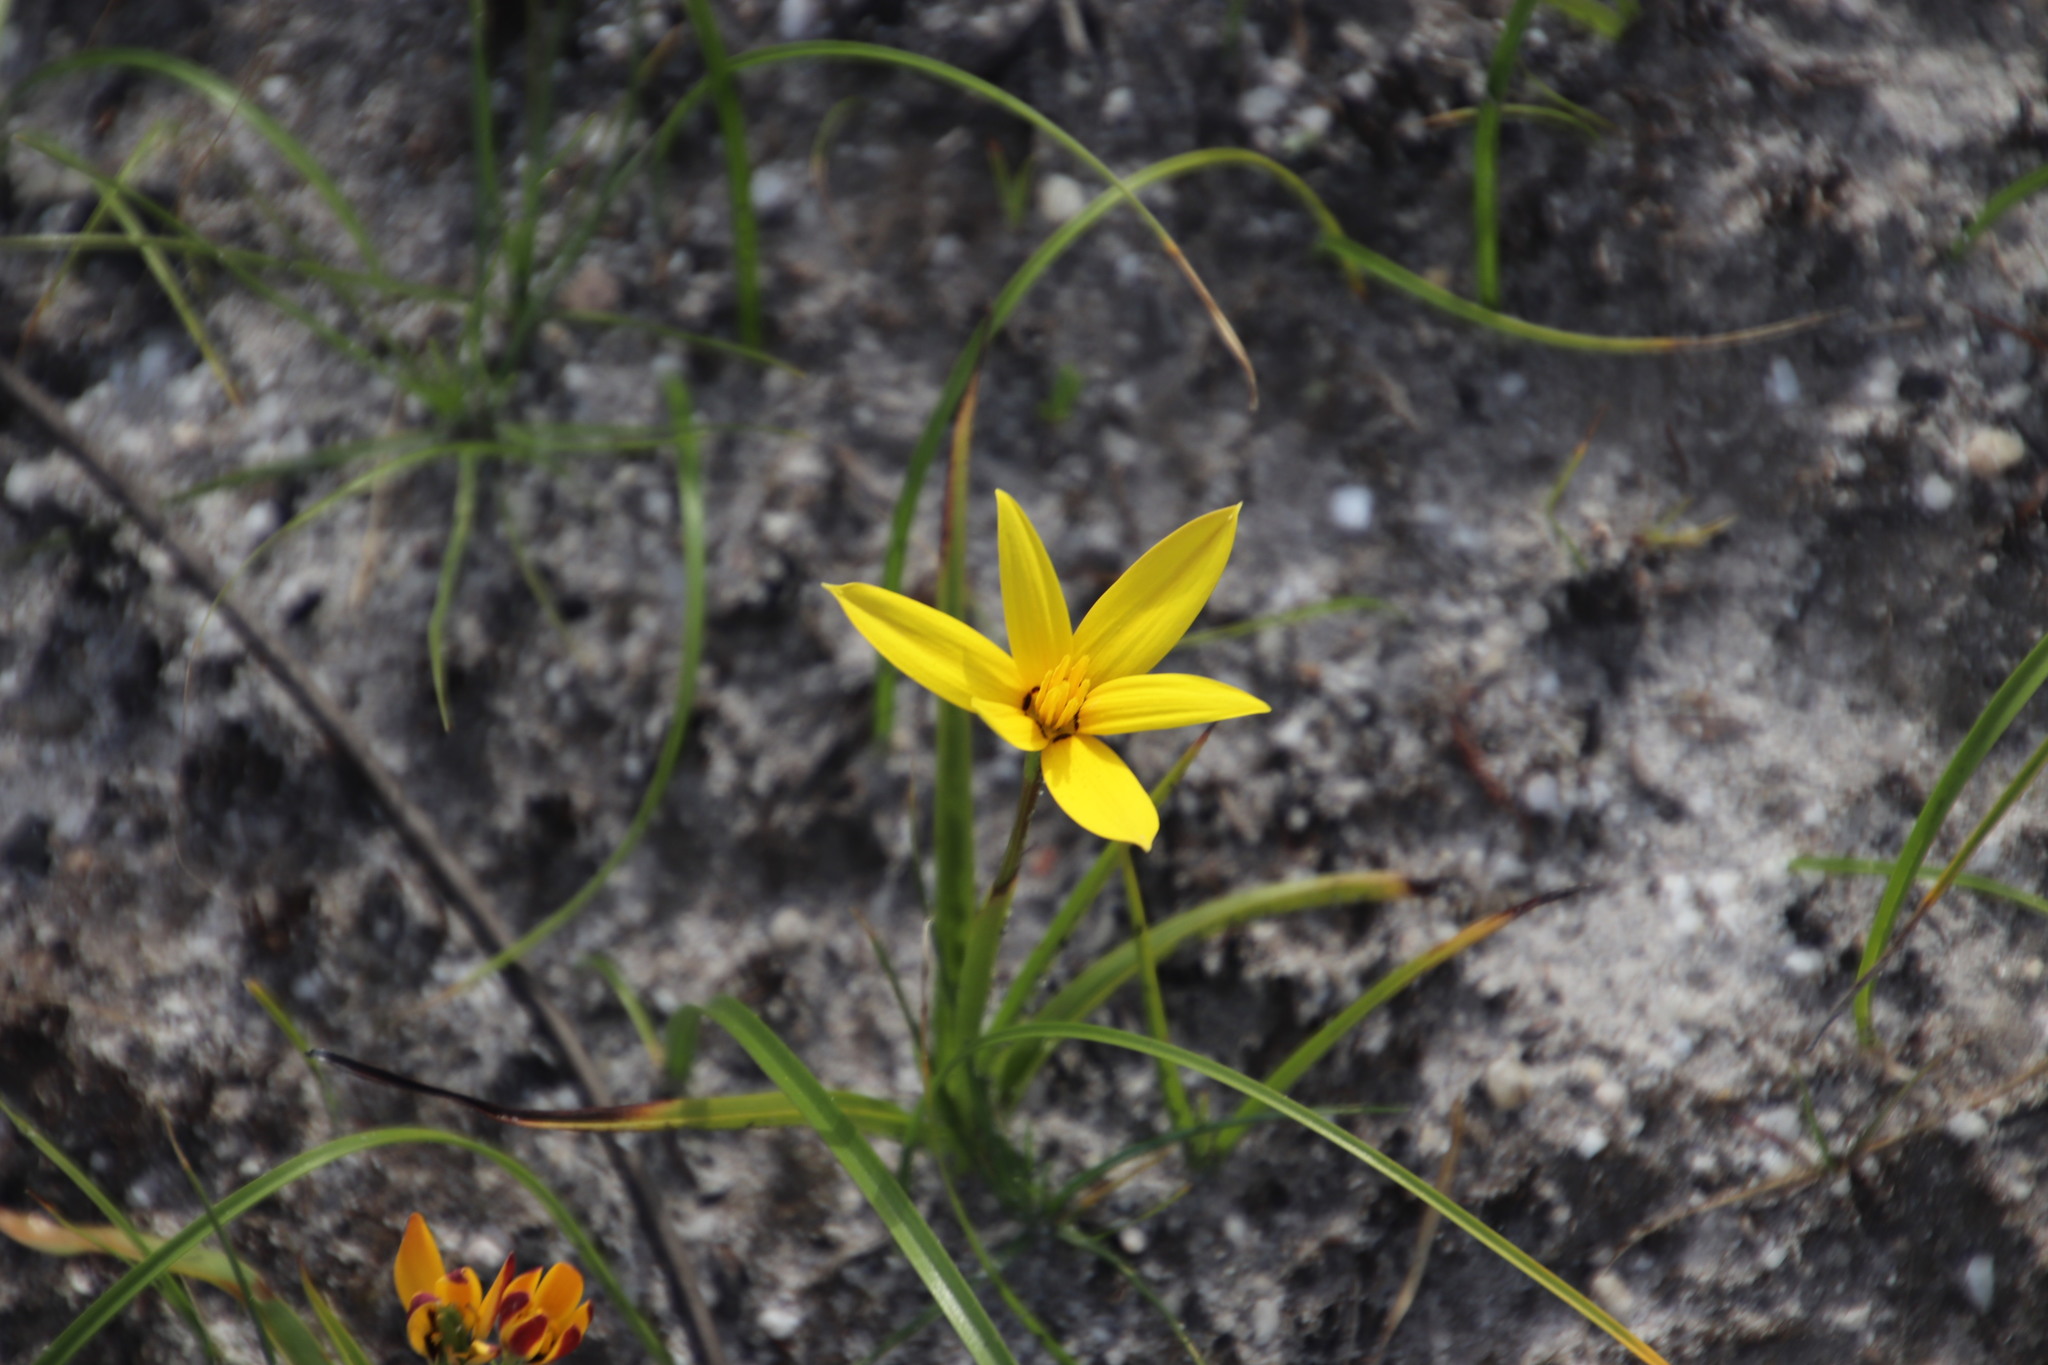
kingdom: Plantae
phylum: Tracheophyta
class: Liliopsida
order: Asparagales
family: Hypoxidaceae
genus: Pauridia
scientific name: Pauridia capensis
